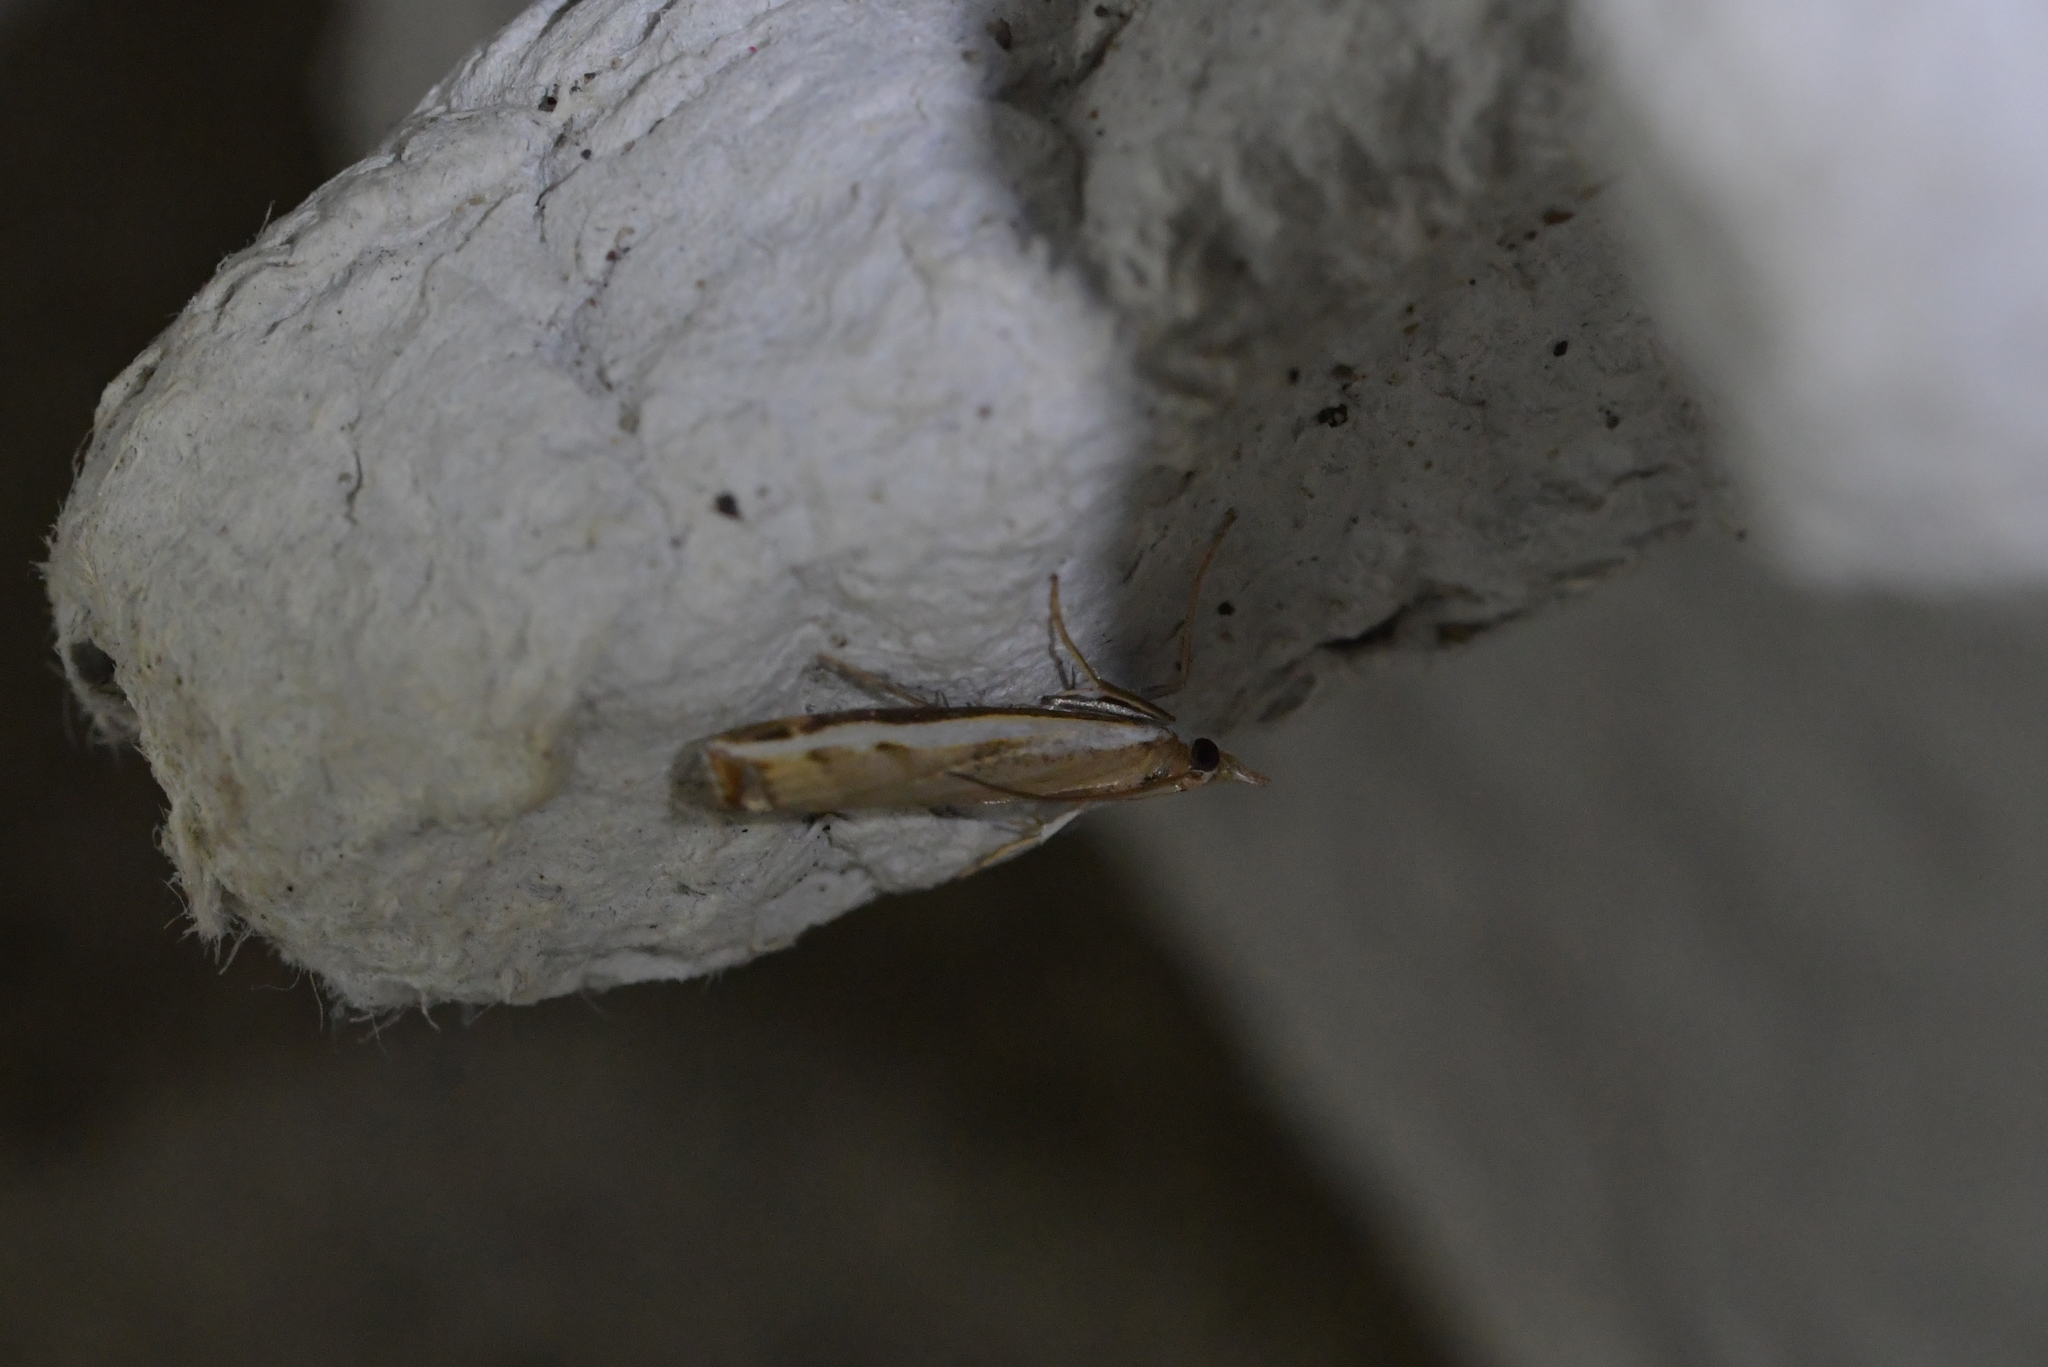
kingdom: Animalia
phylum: Arthropoda
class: Insecta
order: Lepidoptera
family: Crambidae
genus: Orocrambus
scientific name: Orocrambus flexuosellus
